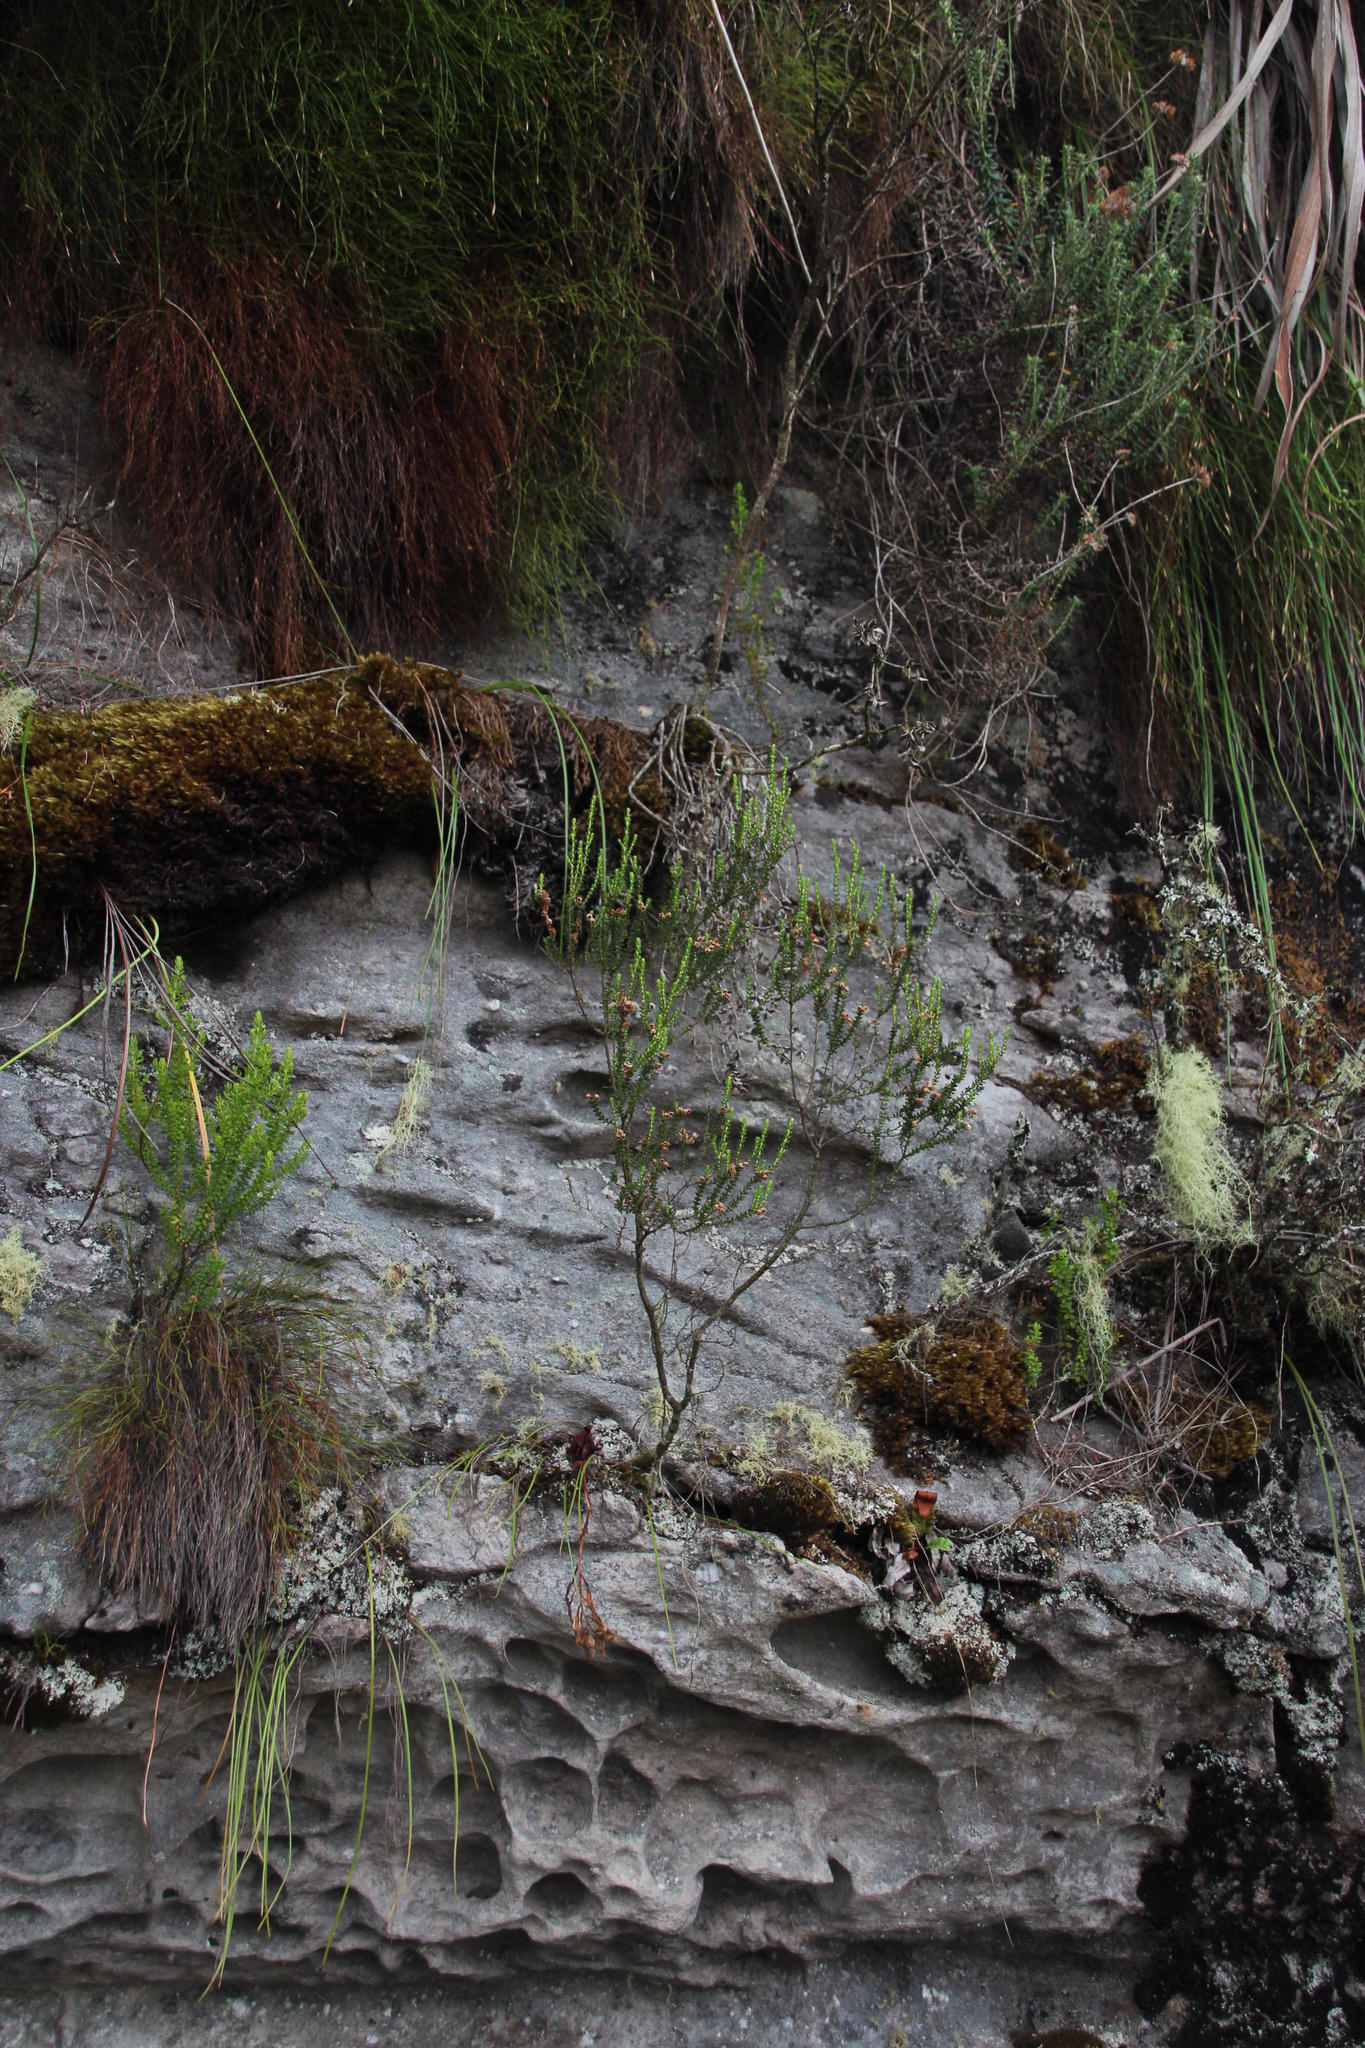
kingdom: Plantae
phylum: Tracheophyta
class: Magnoliopsida
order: Ericales
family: Ericaceae
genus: Erica
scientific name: Erica brevifolia
